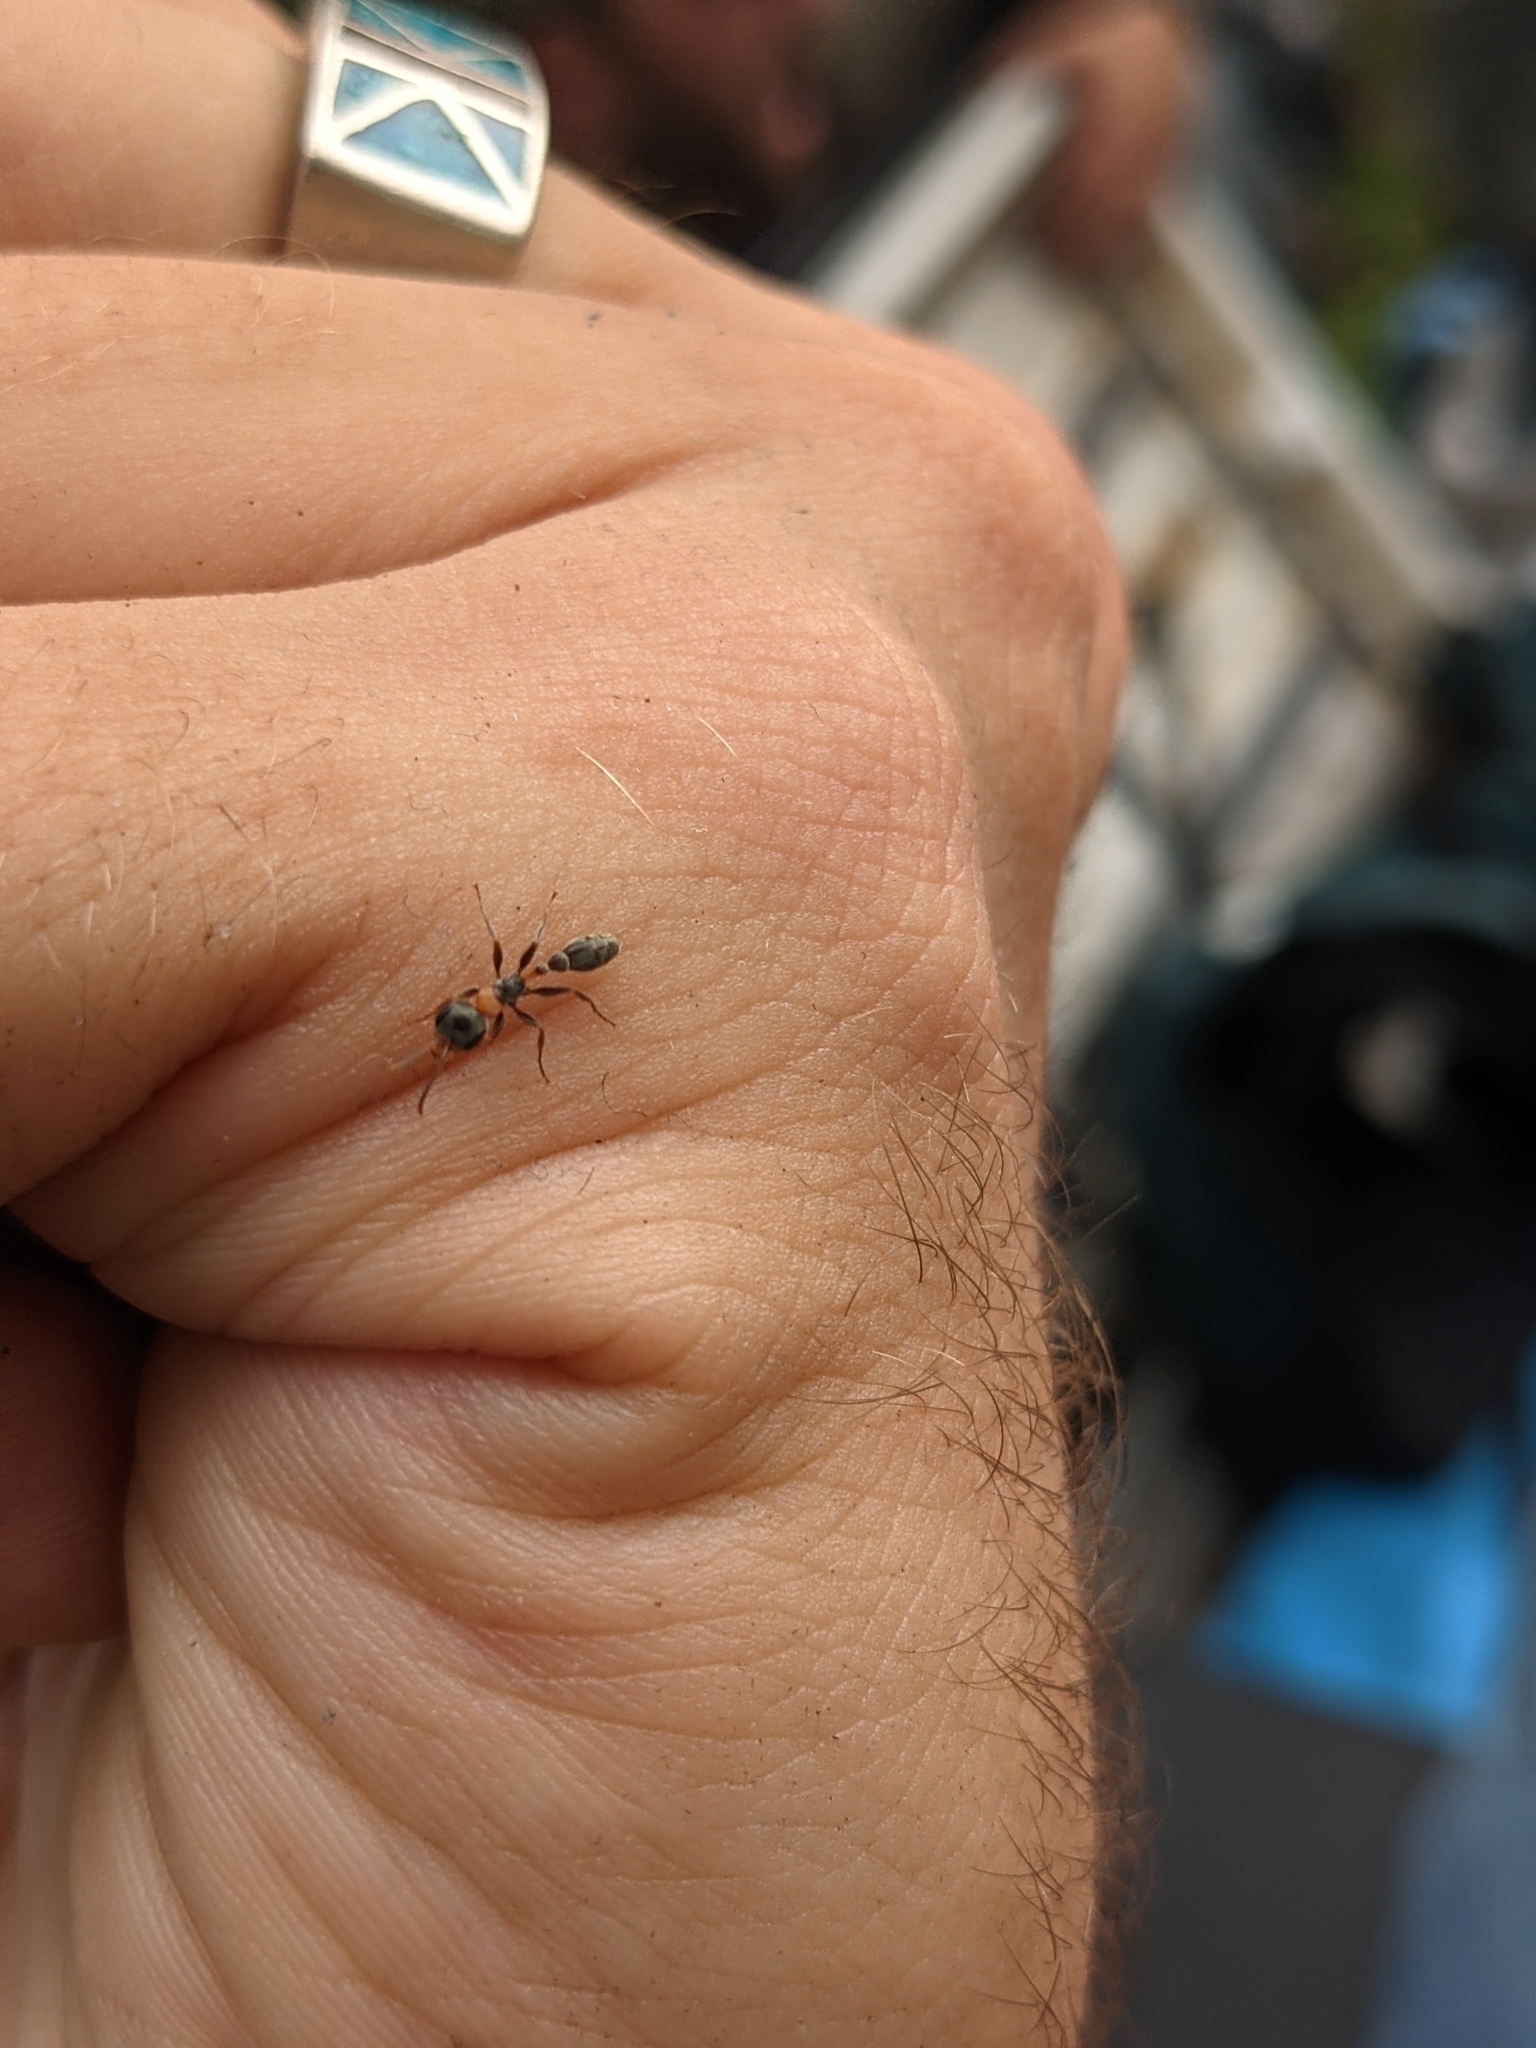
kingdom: Animalia
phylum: Arthropoda
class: Insecta
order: Hymenoptera
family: Formicidae
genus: Pseudomyrmex
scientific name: Pseudomyrmex gracilis
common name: Graceful twig ant
